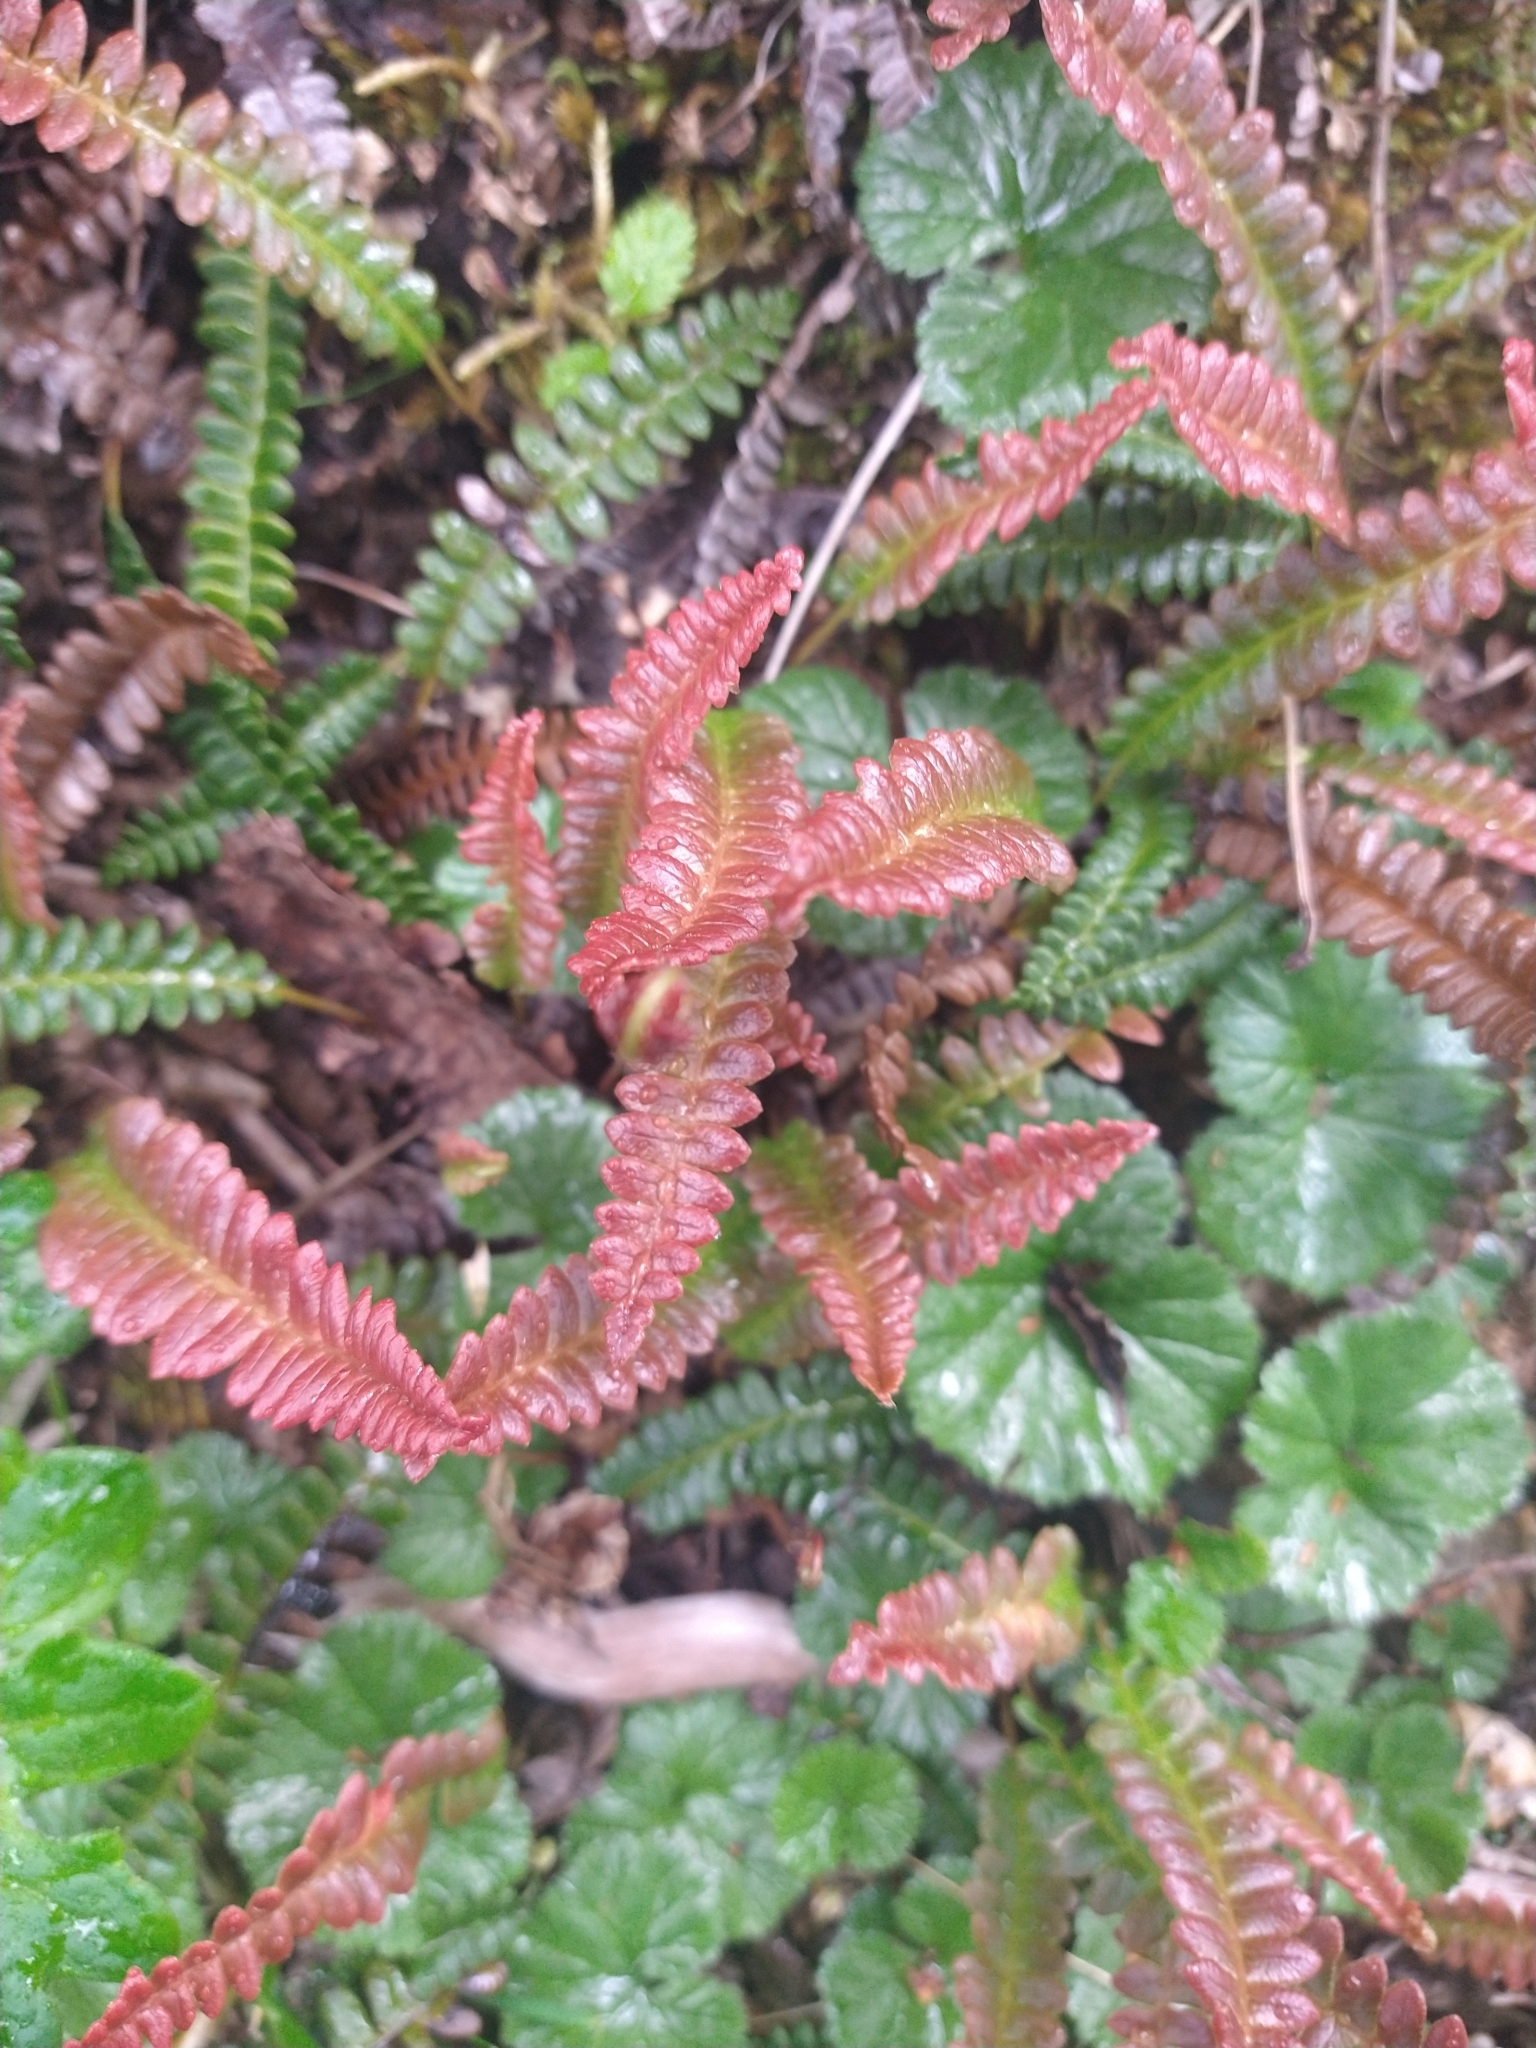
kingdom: Plantae
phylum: Tracheophyta
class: Polypodiopsida
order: Polypodiales
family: Blechnaceae
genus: Austroblechnum
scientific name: Austroblechnum penna-marina
